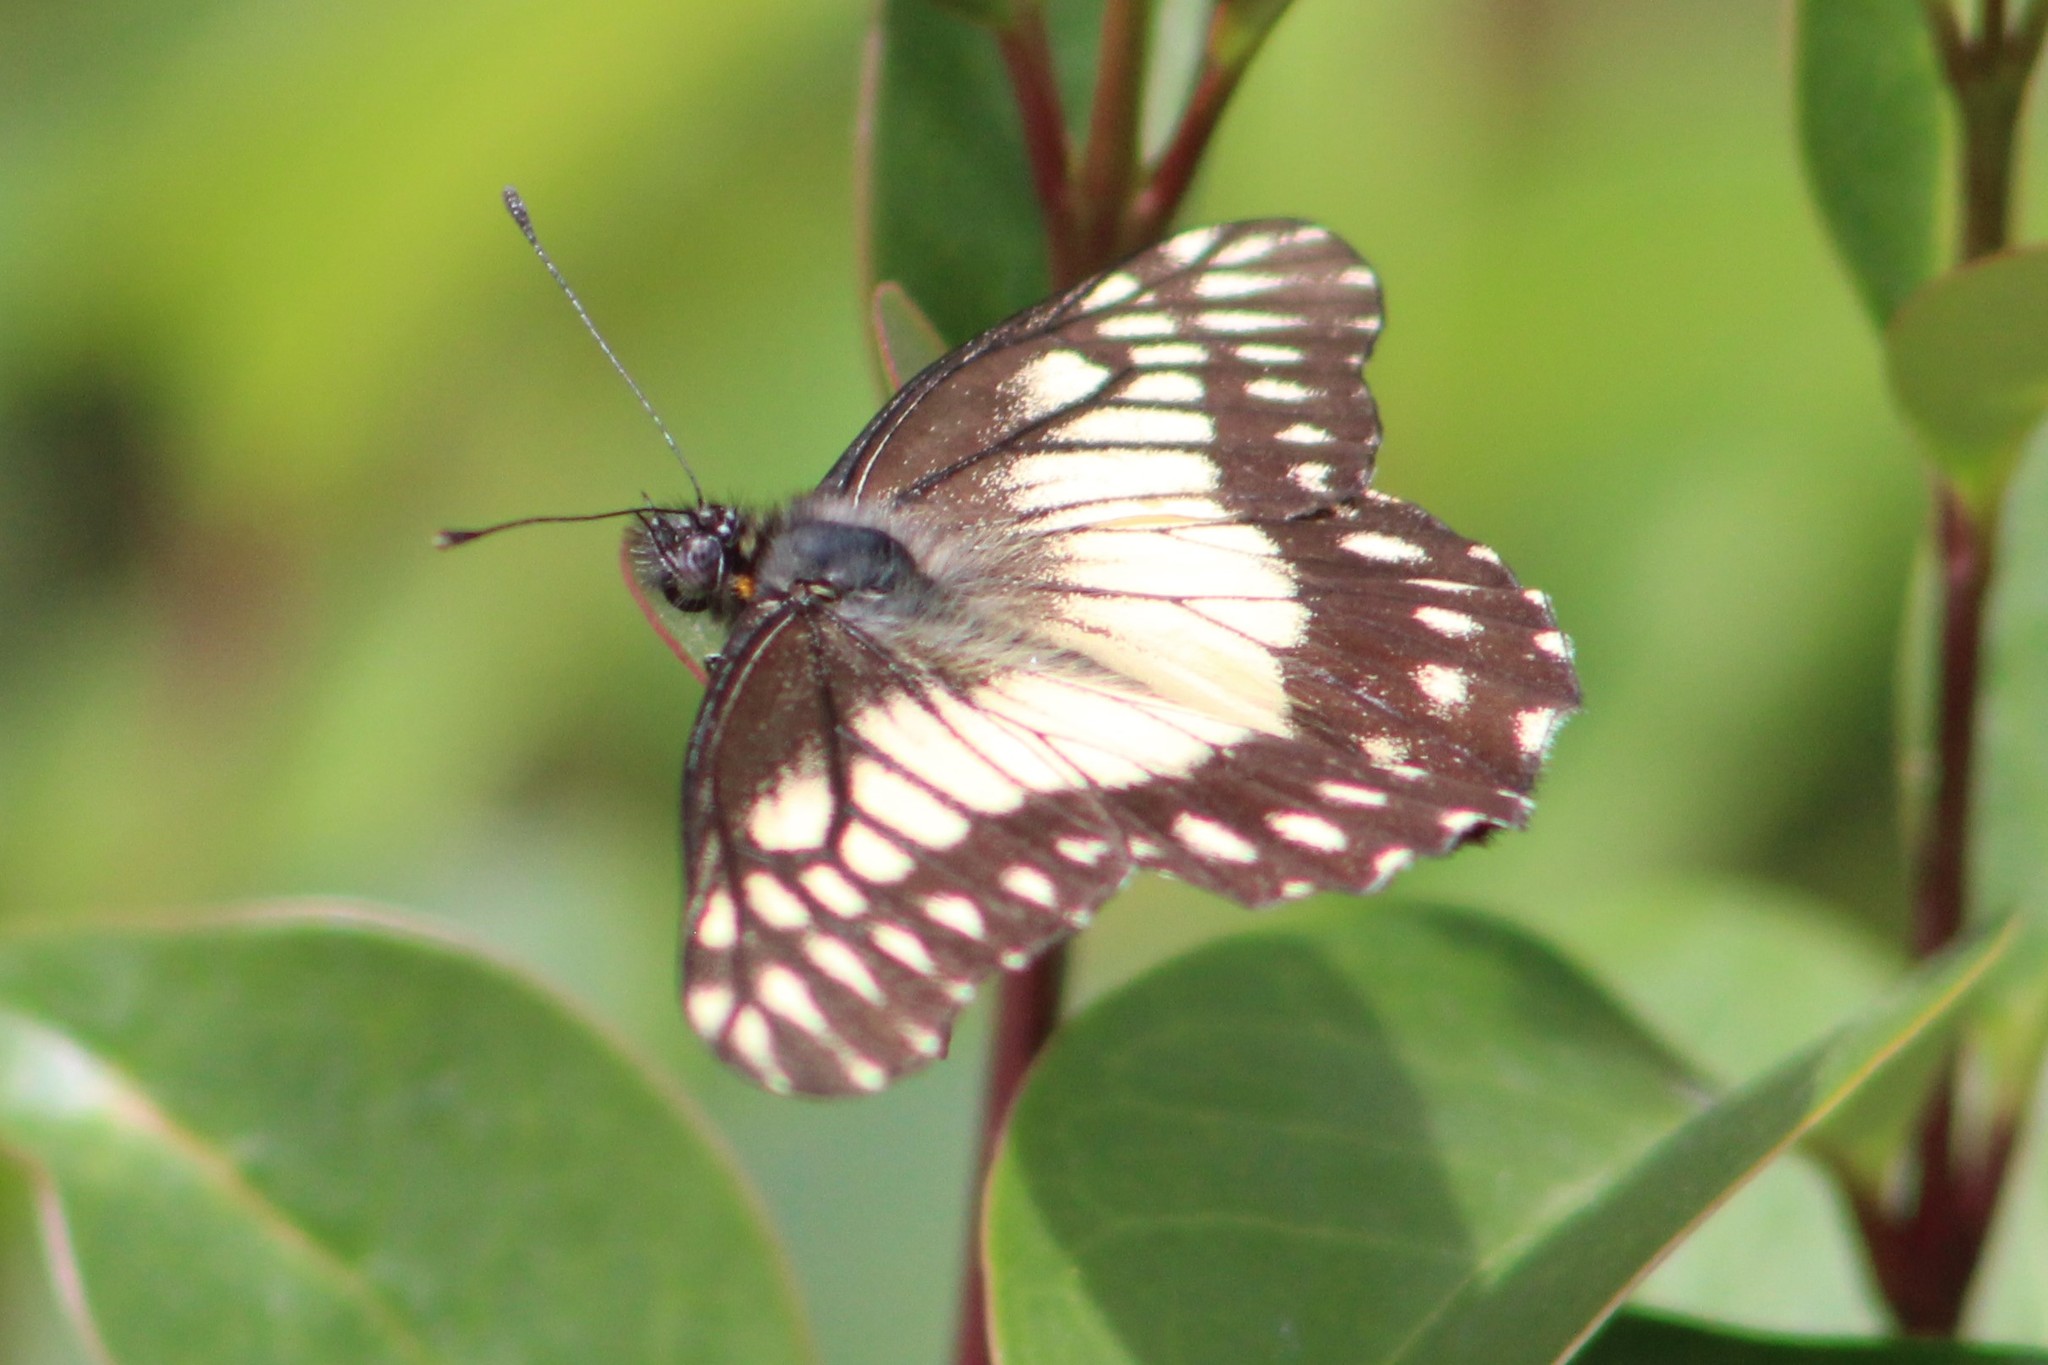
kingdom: Animalia
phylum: Arthropoda
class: Insecta
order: Lepidoptera
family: Pieridae
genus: Archonias
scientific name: Archonias nimbice
